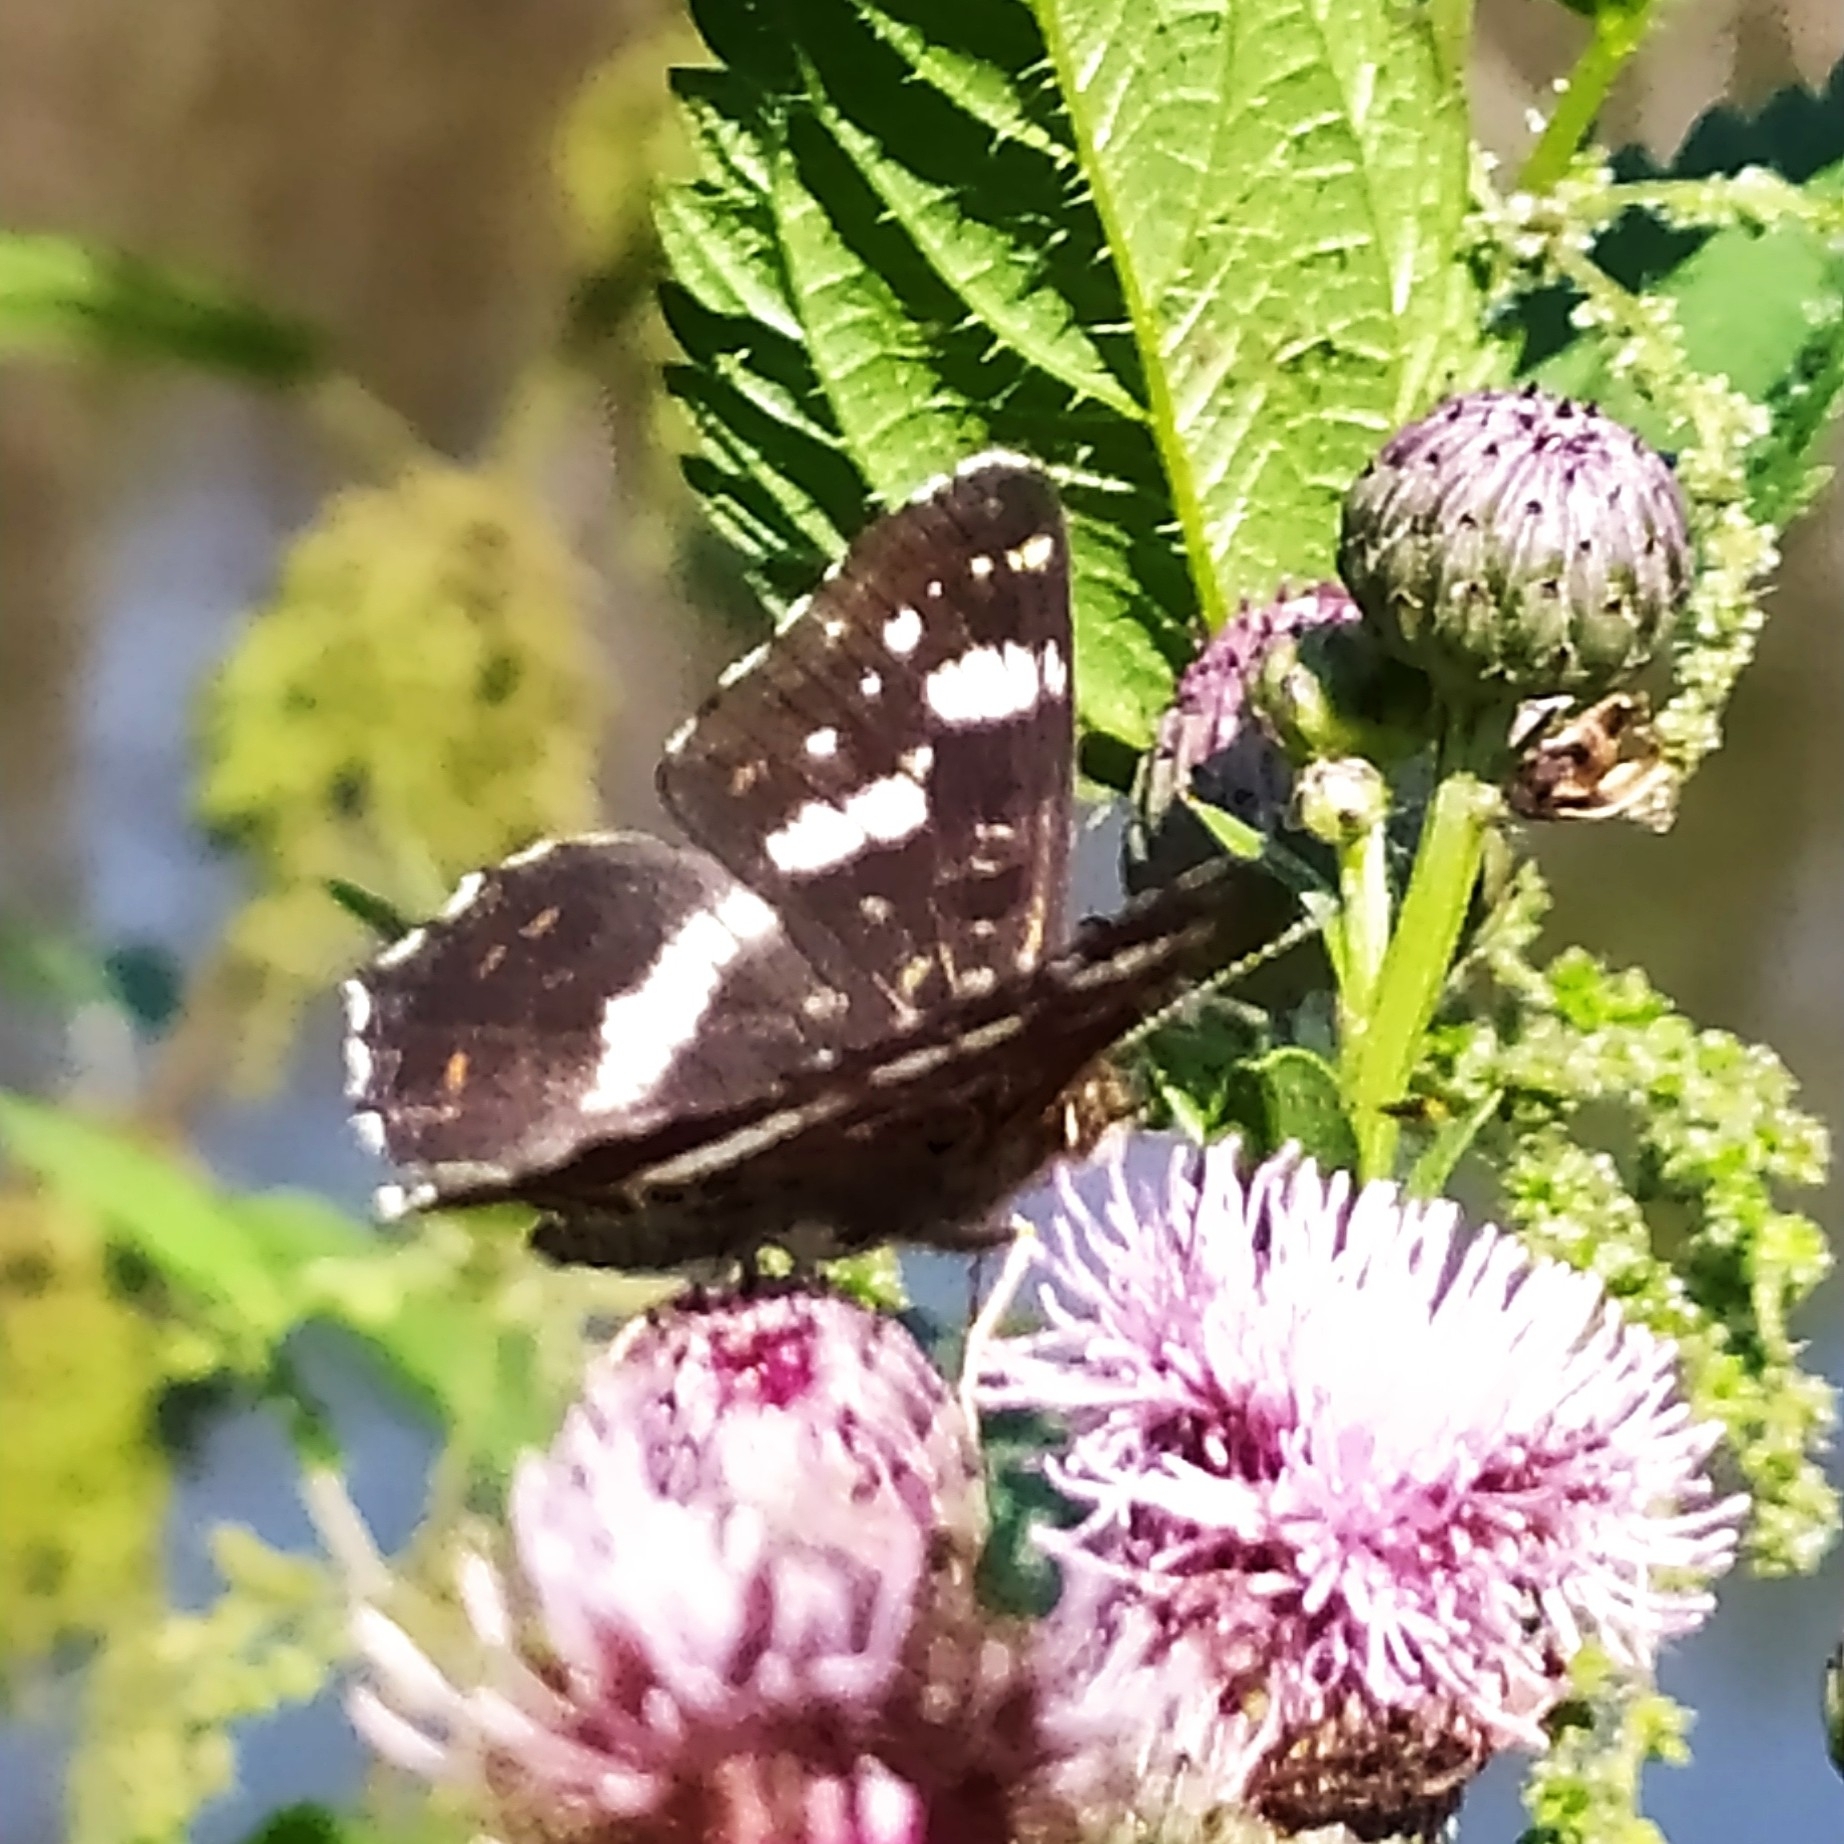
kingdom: Animalia
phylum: Arthropoda
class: Insecta
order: Lepidoptera
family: Nymphalidae
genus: Araschnia
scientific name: Araschnia levana
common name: Map butterfly
